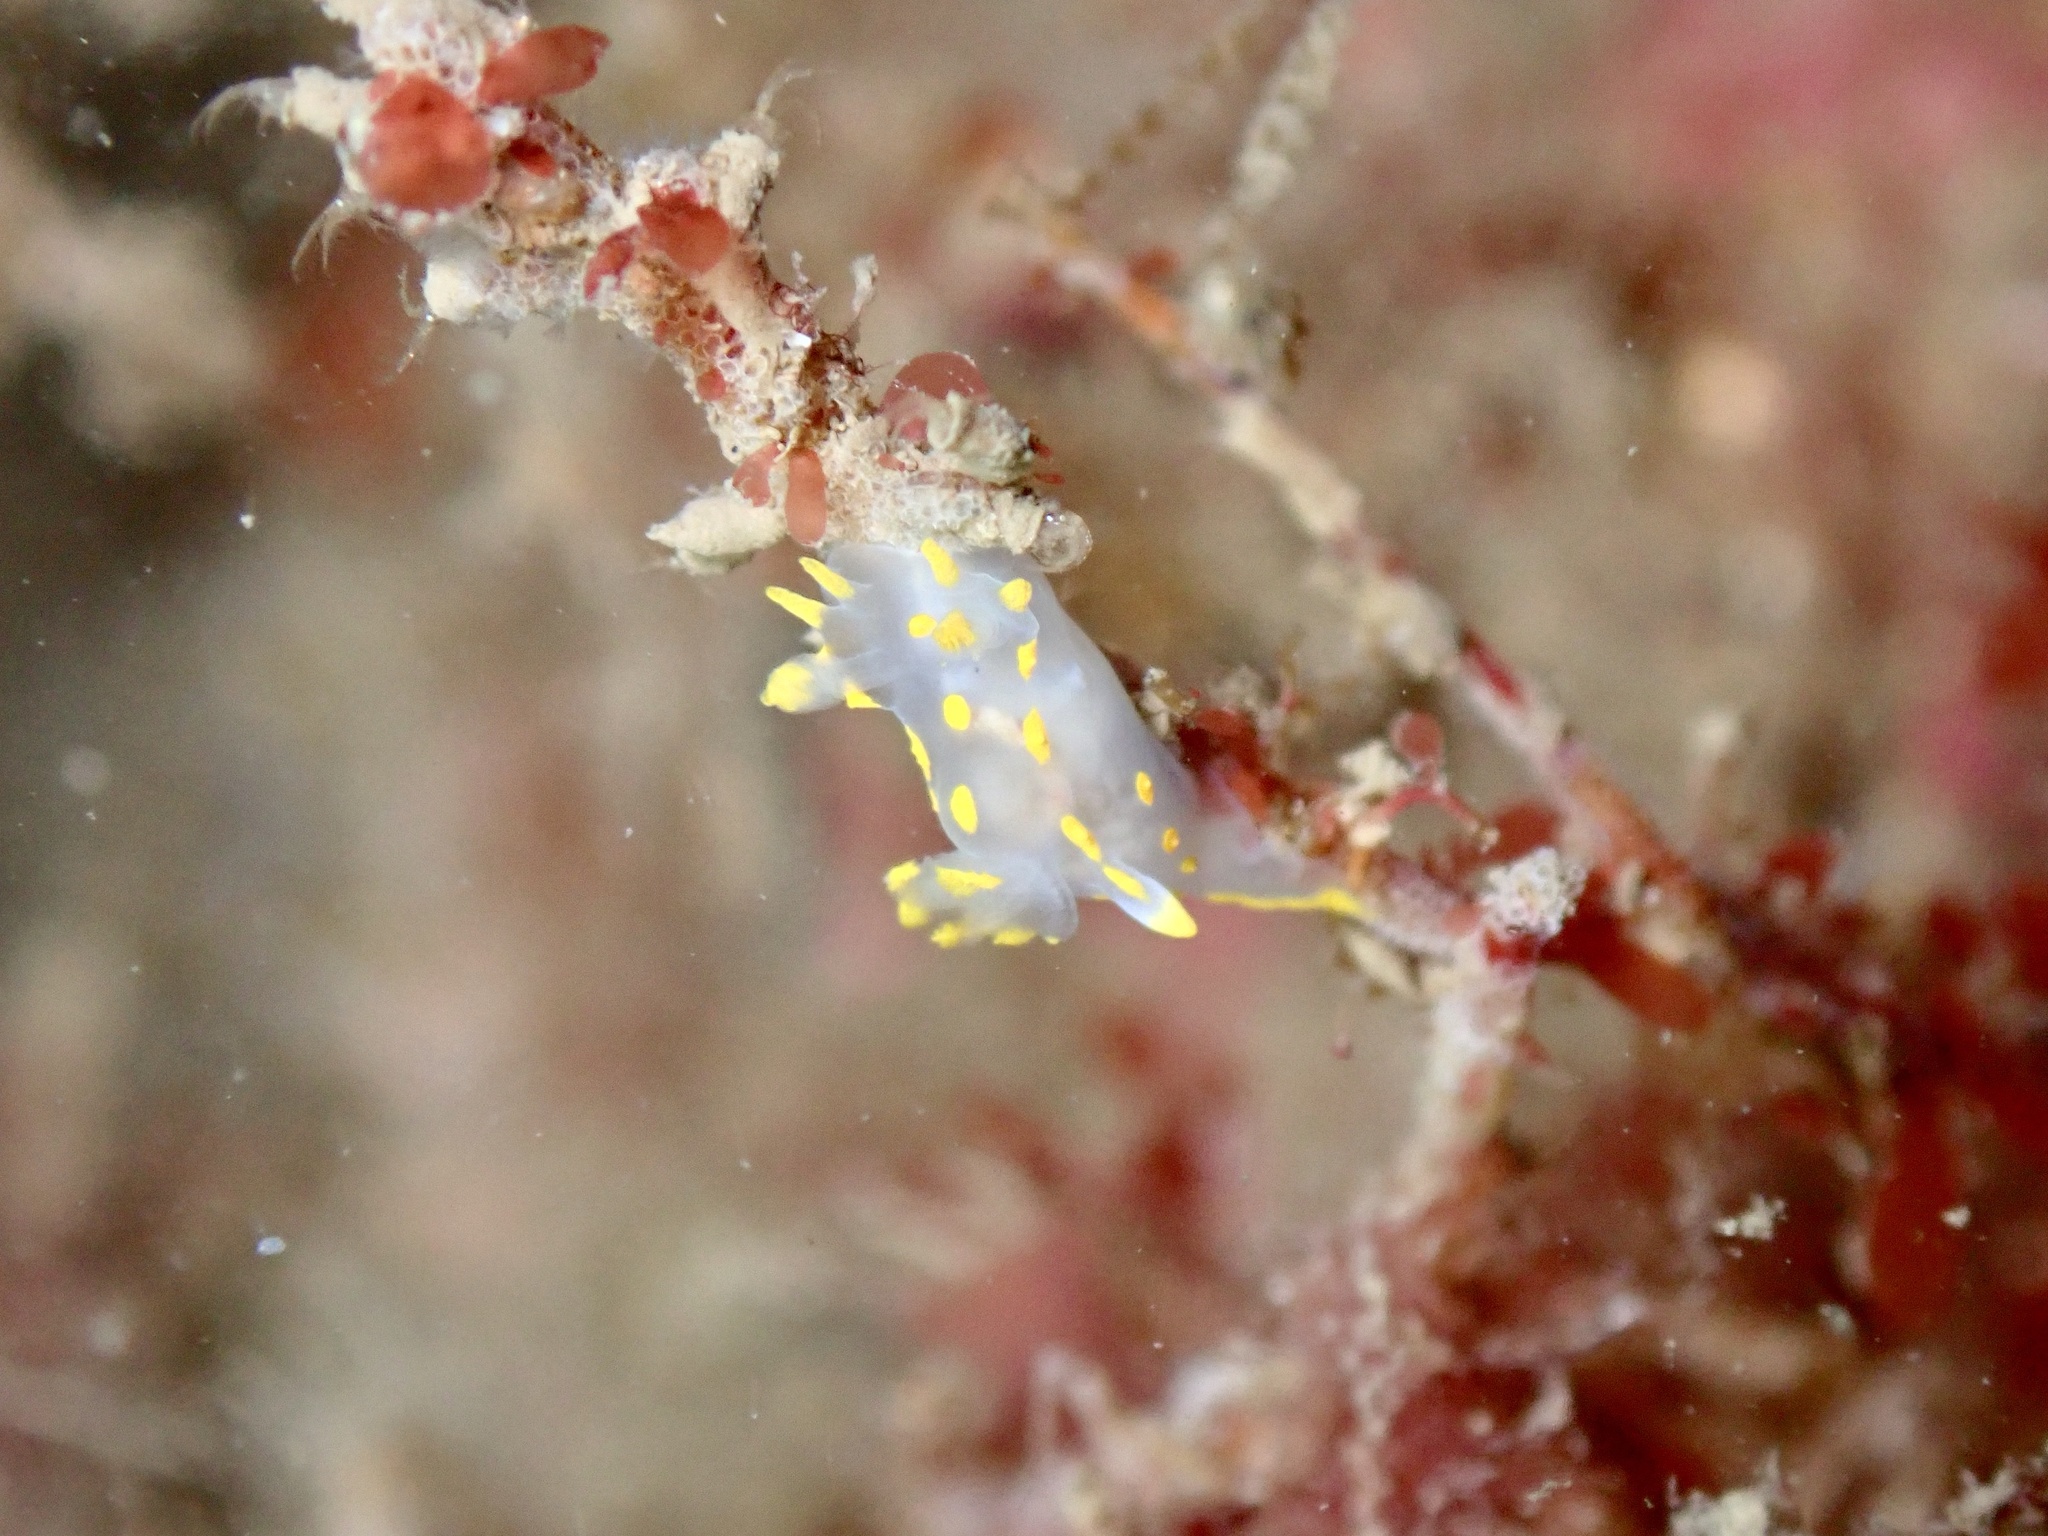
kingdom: Animalia
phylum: Mollusca
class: Gastropoda
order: Nudibranchia
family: Polyceridae
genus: Polycera
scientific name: Polycera quadrilineata
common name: Four-striped polycera
